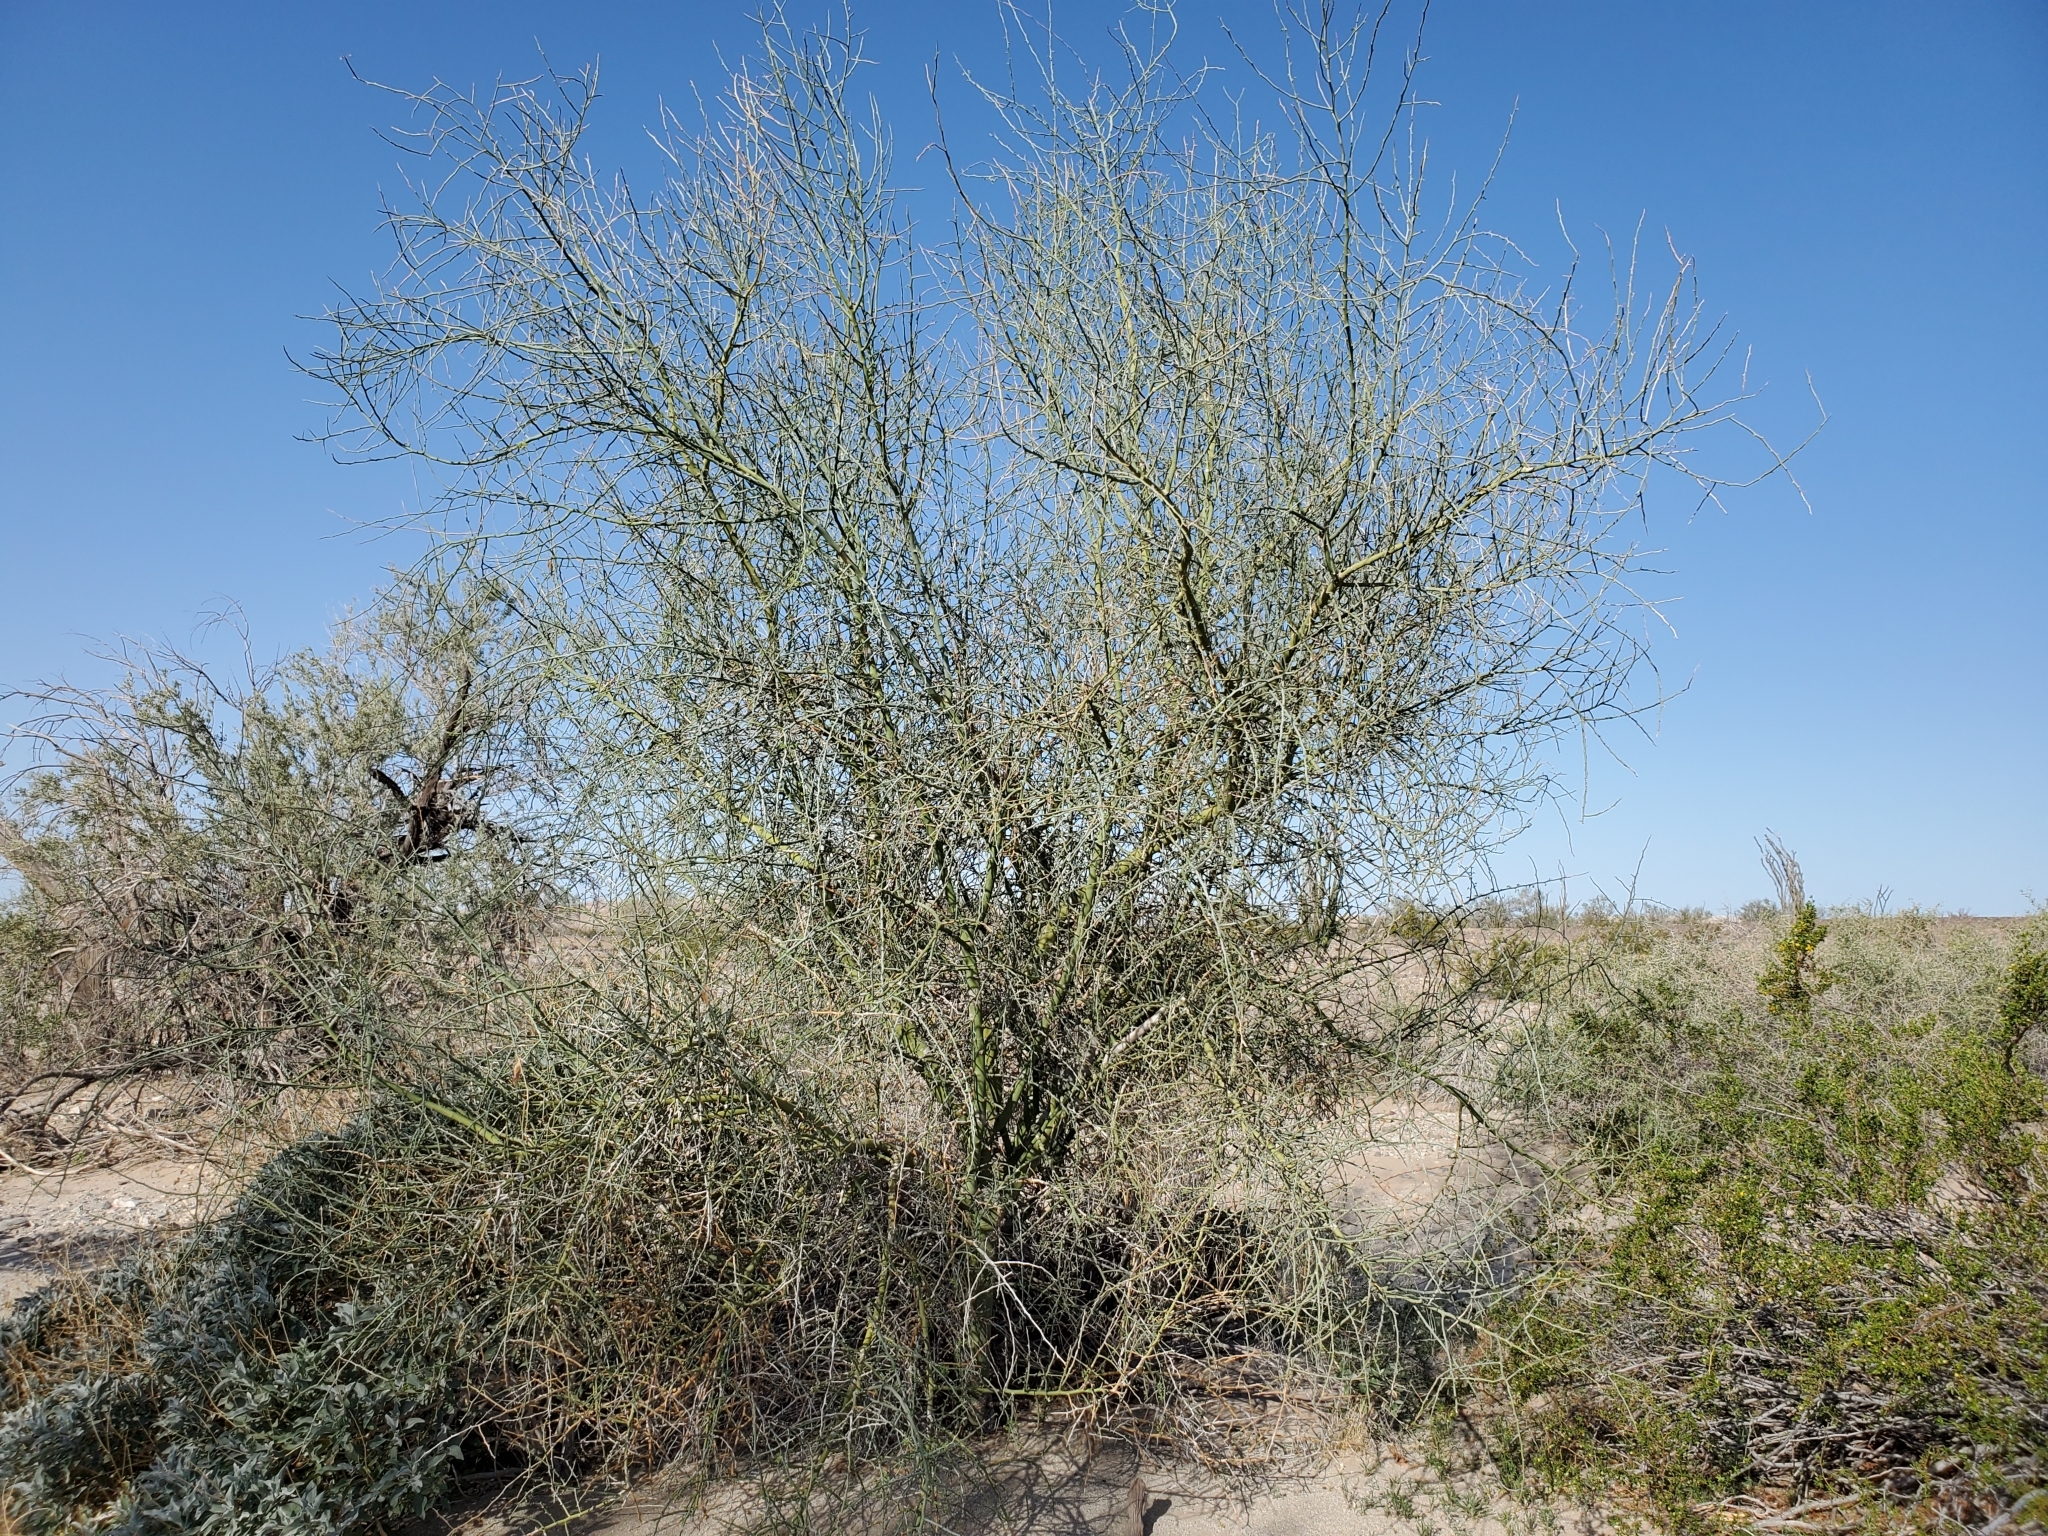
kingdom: Plantae
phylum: Tracheophyta
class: Magnoliopsida
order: Fabales
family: Fabaceae
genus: Parkinsonia
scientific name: Parkinsonia florida
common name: Blue paloverde
